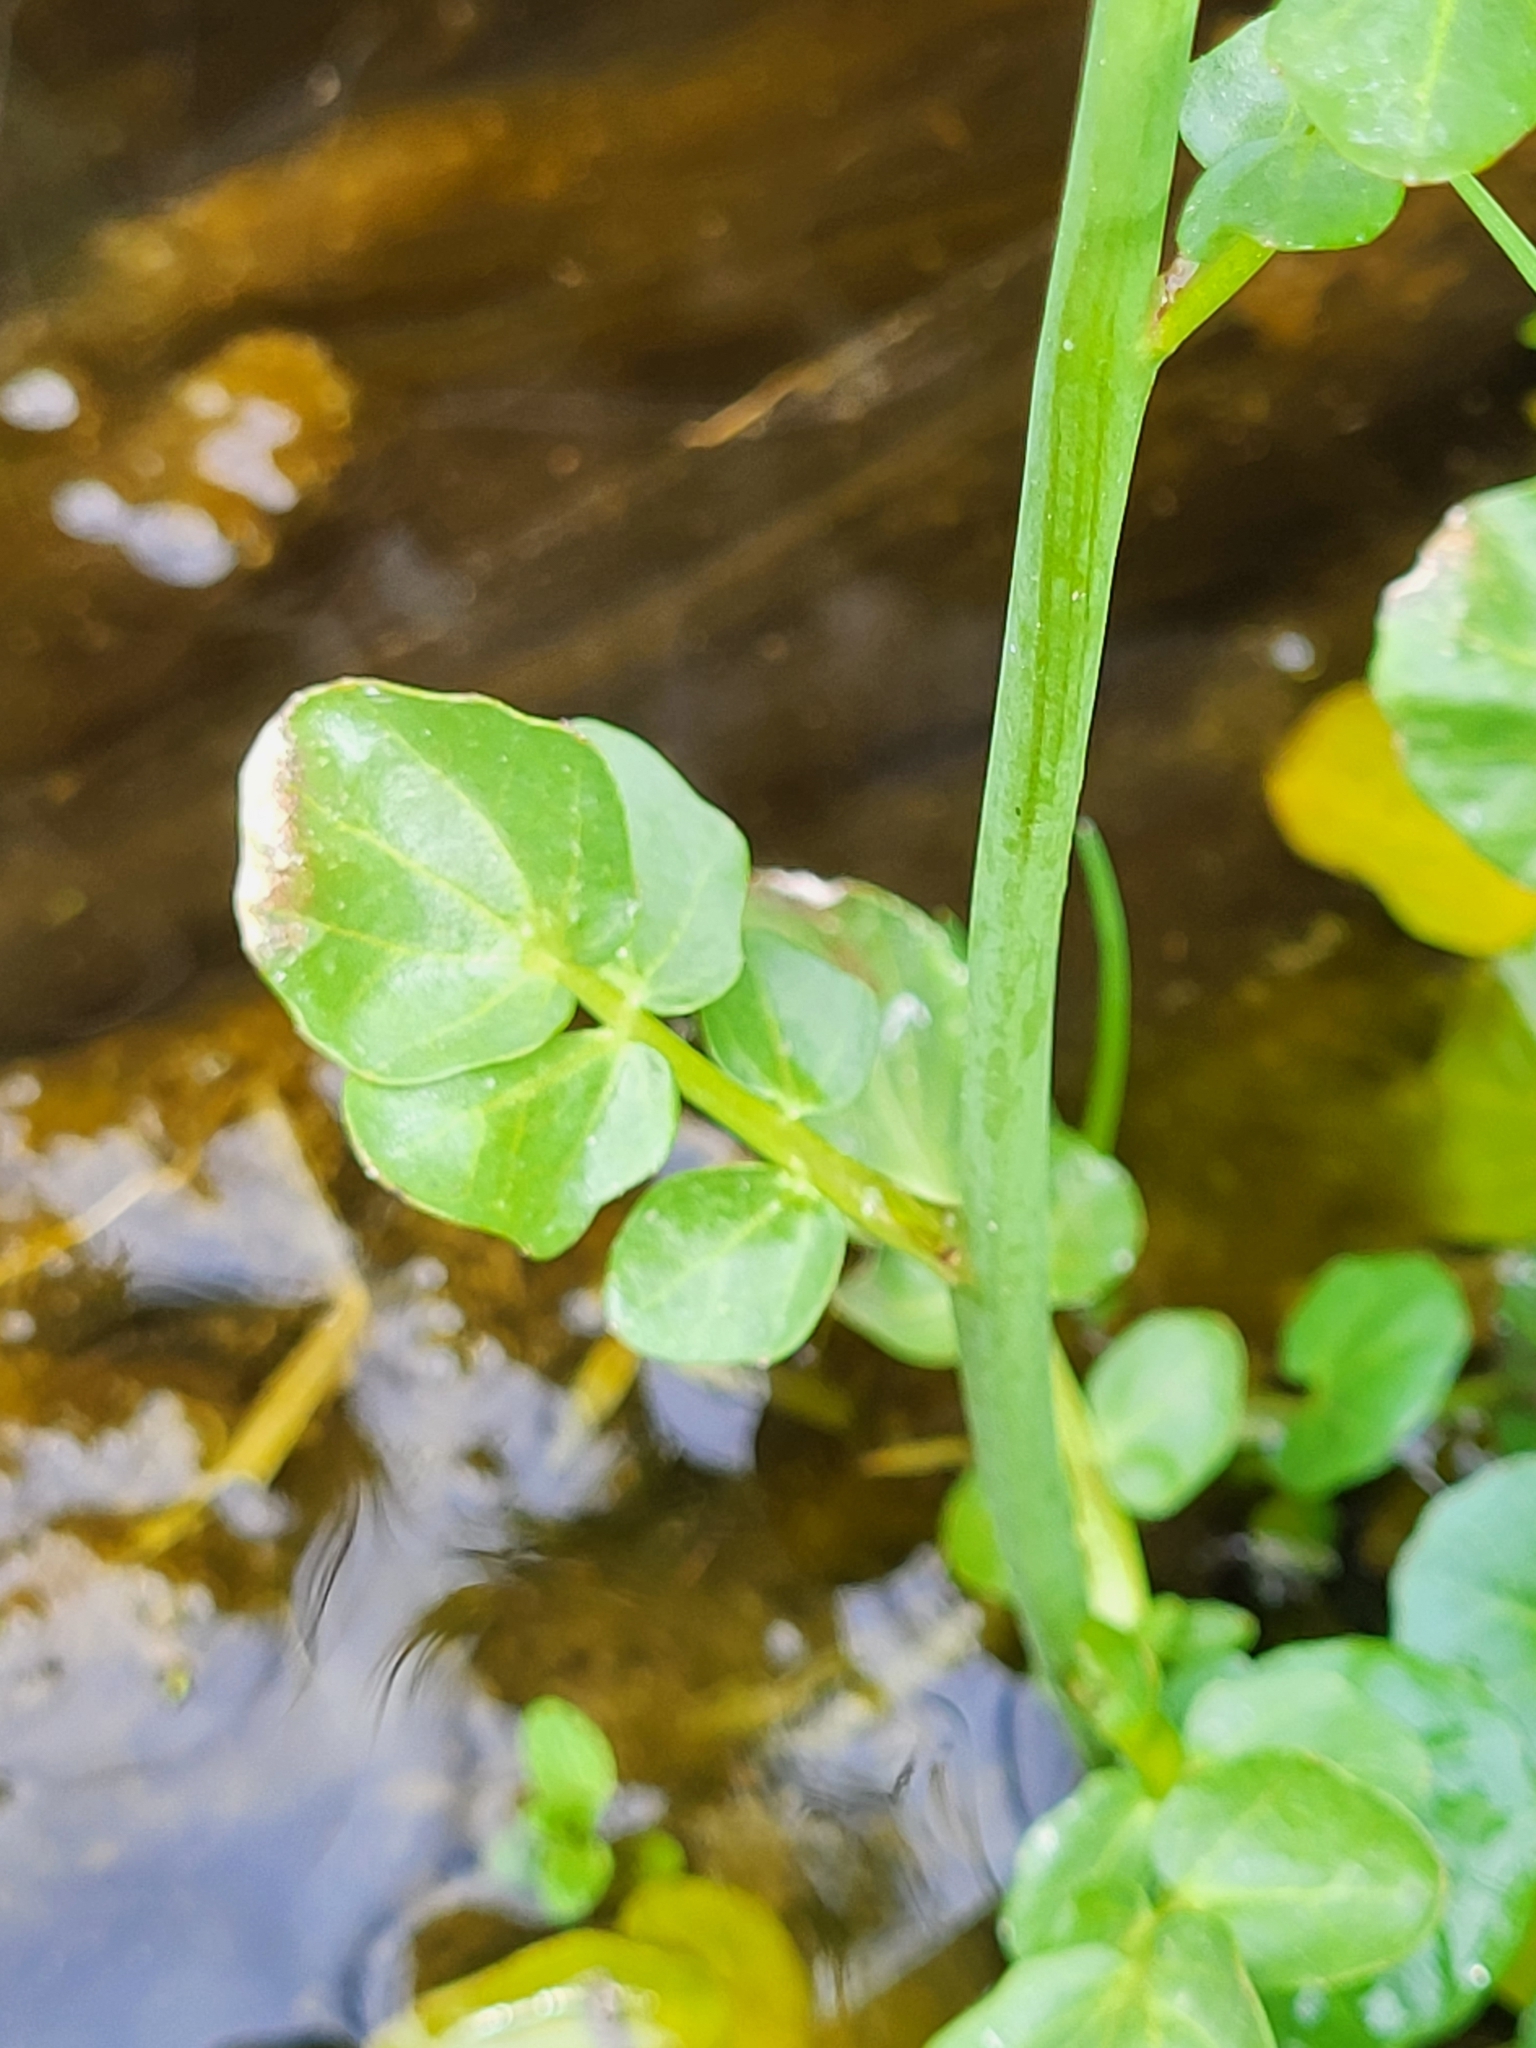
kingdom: Plantae
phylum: Tracheophyta
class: Magnoliopsida
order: Brassicales
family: Brassicaceae
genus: Cardamine
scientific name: Cardamine uliginosa
